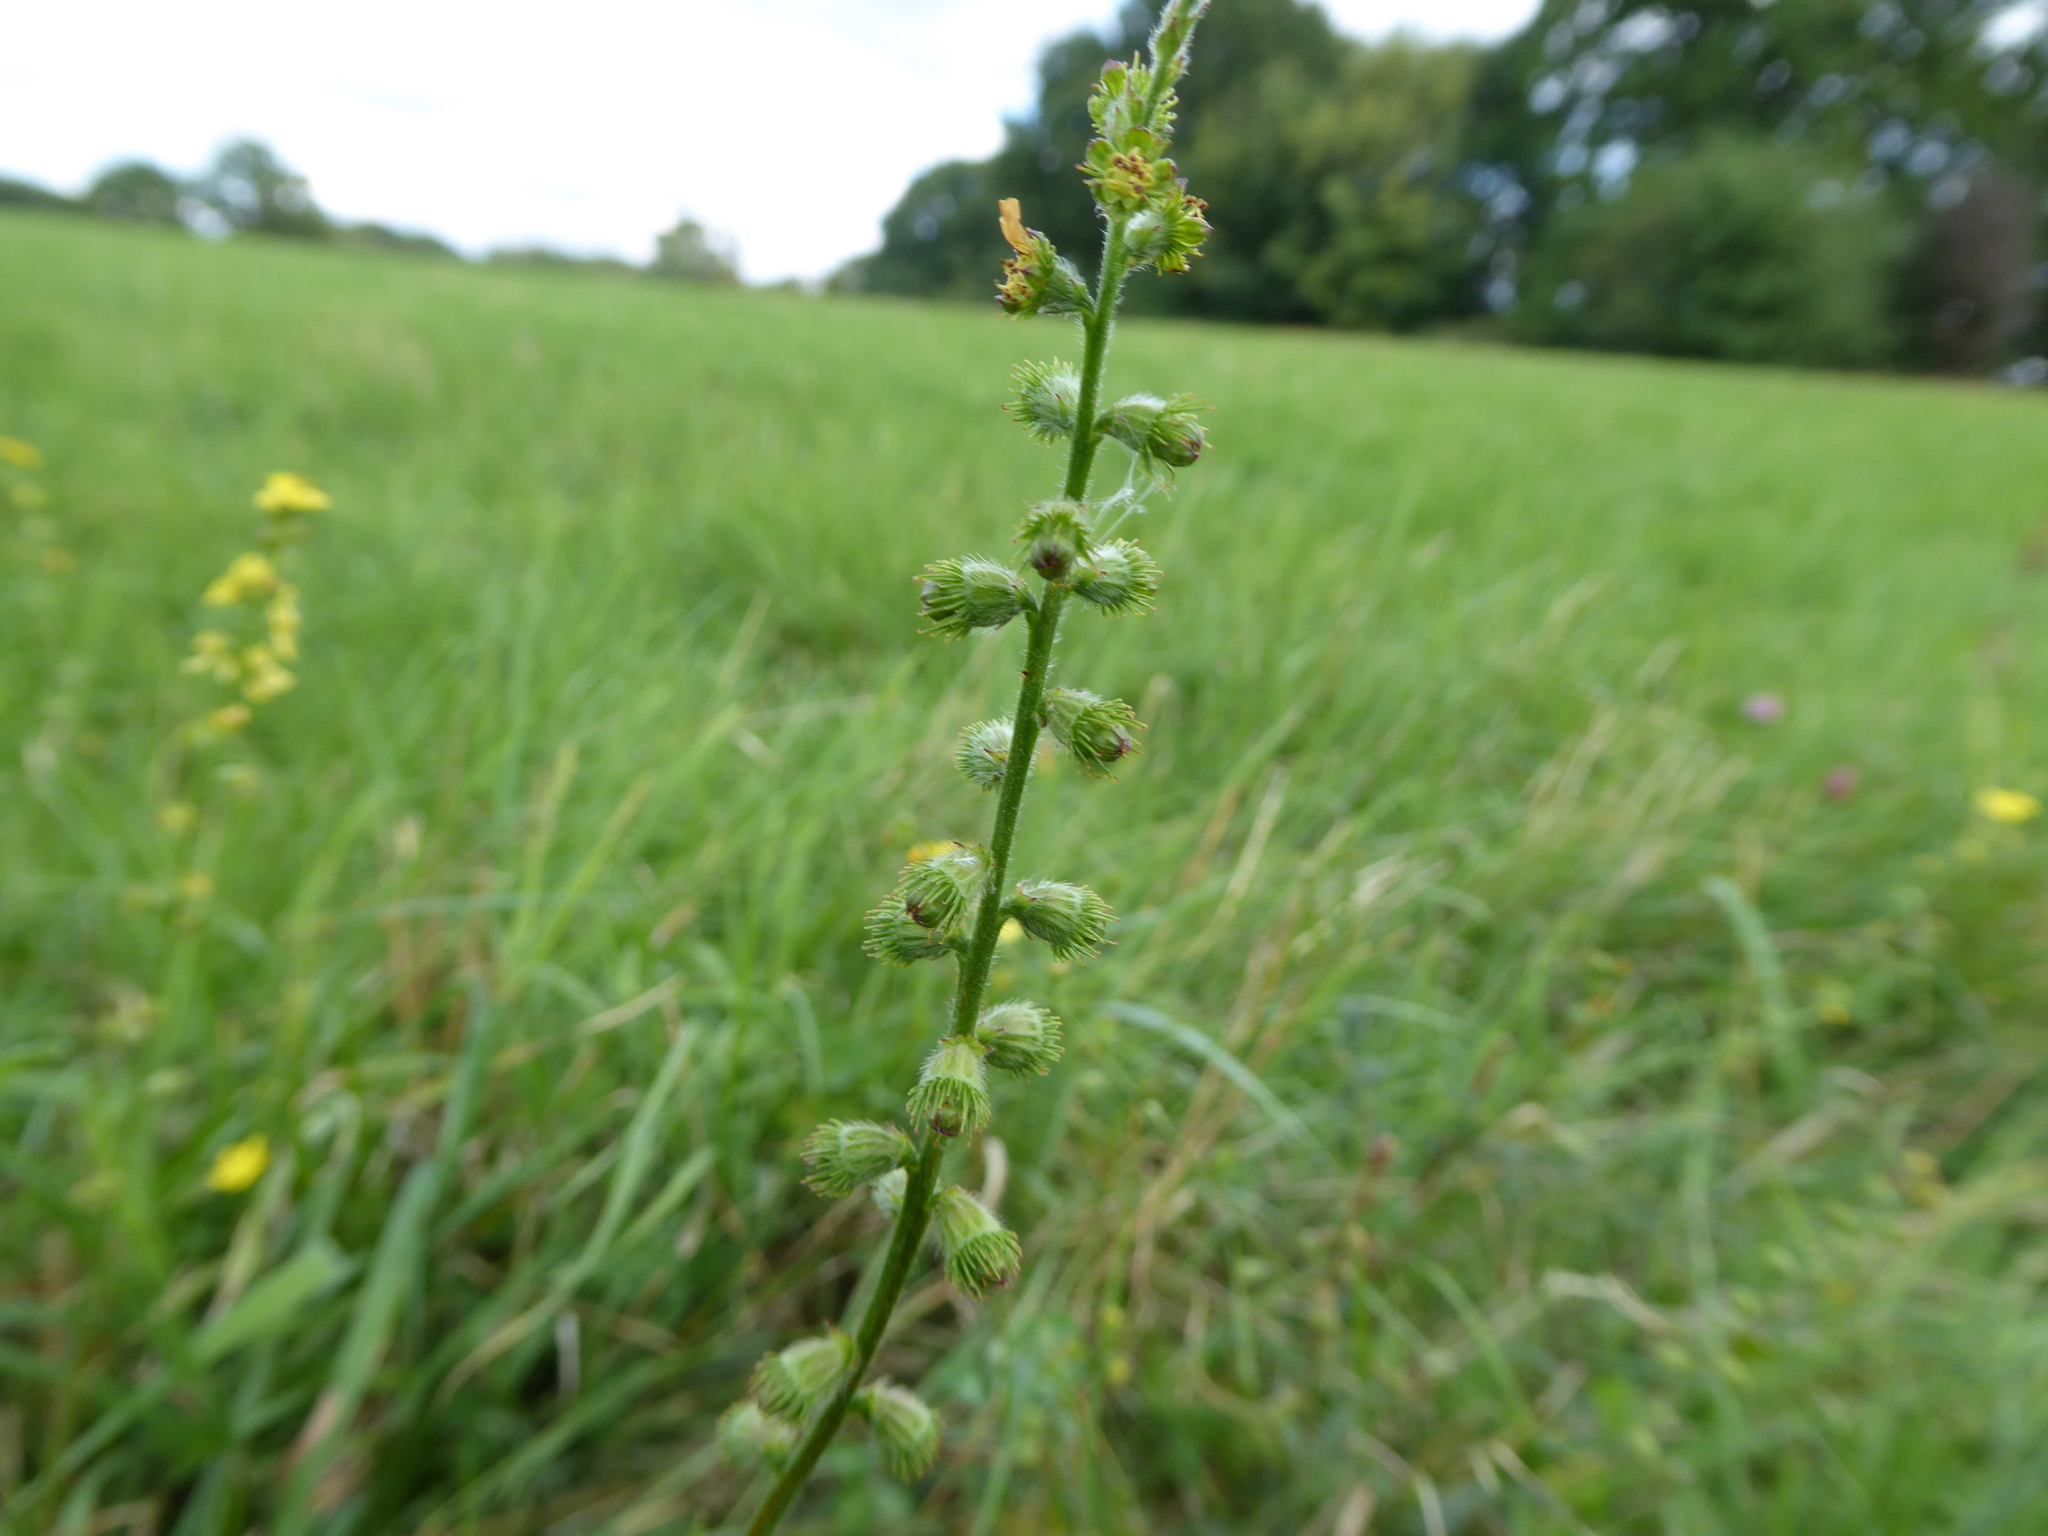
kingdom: Plantae
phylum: Tracheophyta
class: Magnoliopsida
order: Rosales
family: Rosaceae
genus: Agrimonia
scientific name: Agrimonia eupatoria
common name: Agrimony
